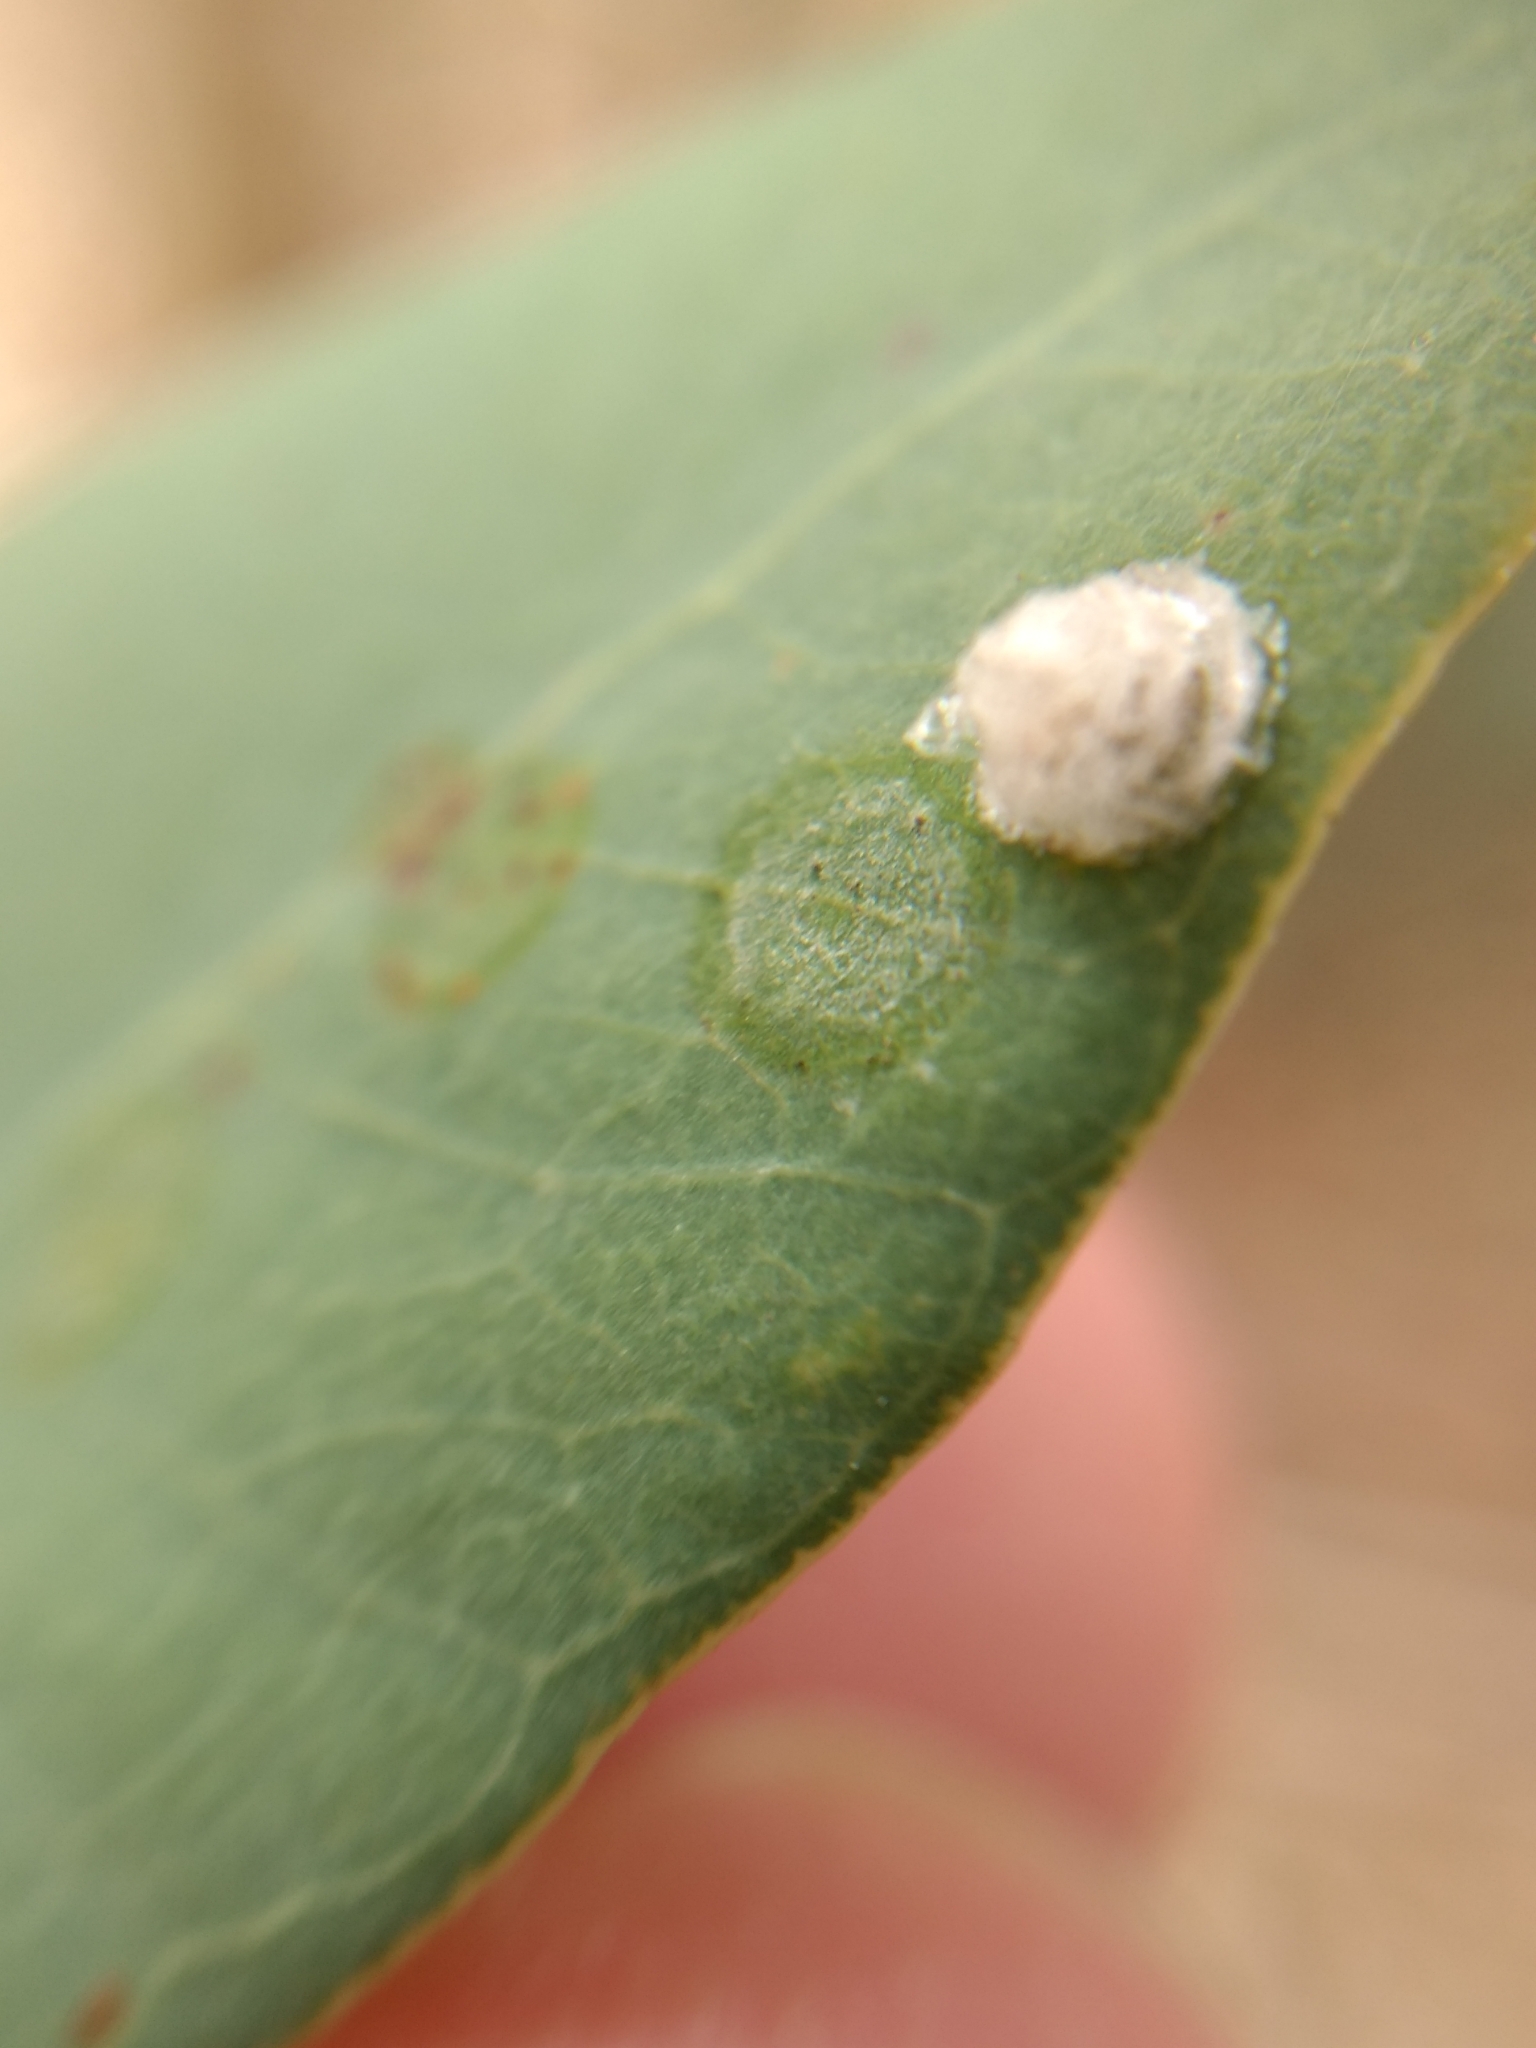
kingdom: Animalia
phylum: Arthropoda
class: Insecta
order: Hemiptera
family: Aphalaridae
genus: Glycaspis
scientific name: Glycaspis brimblecombei
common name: Red gum lerp psyllid
